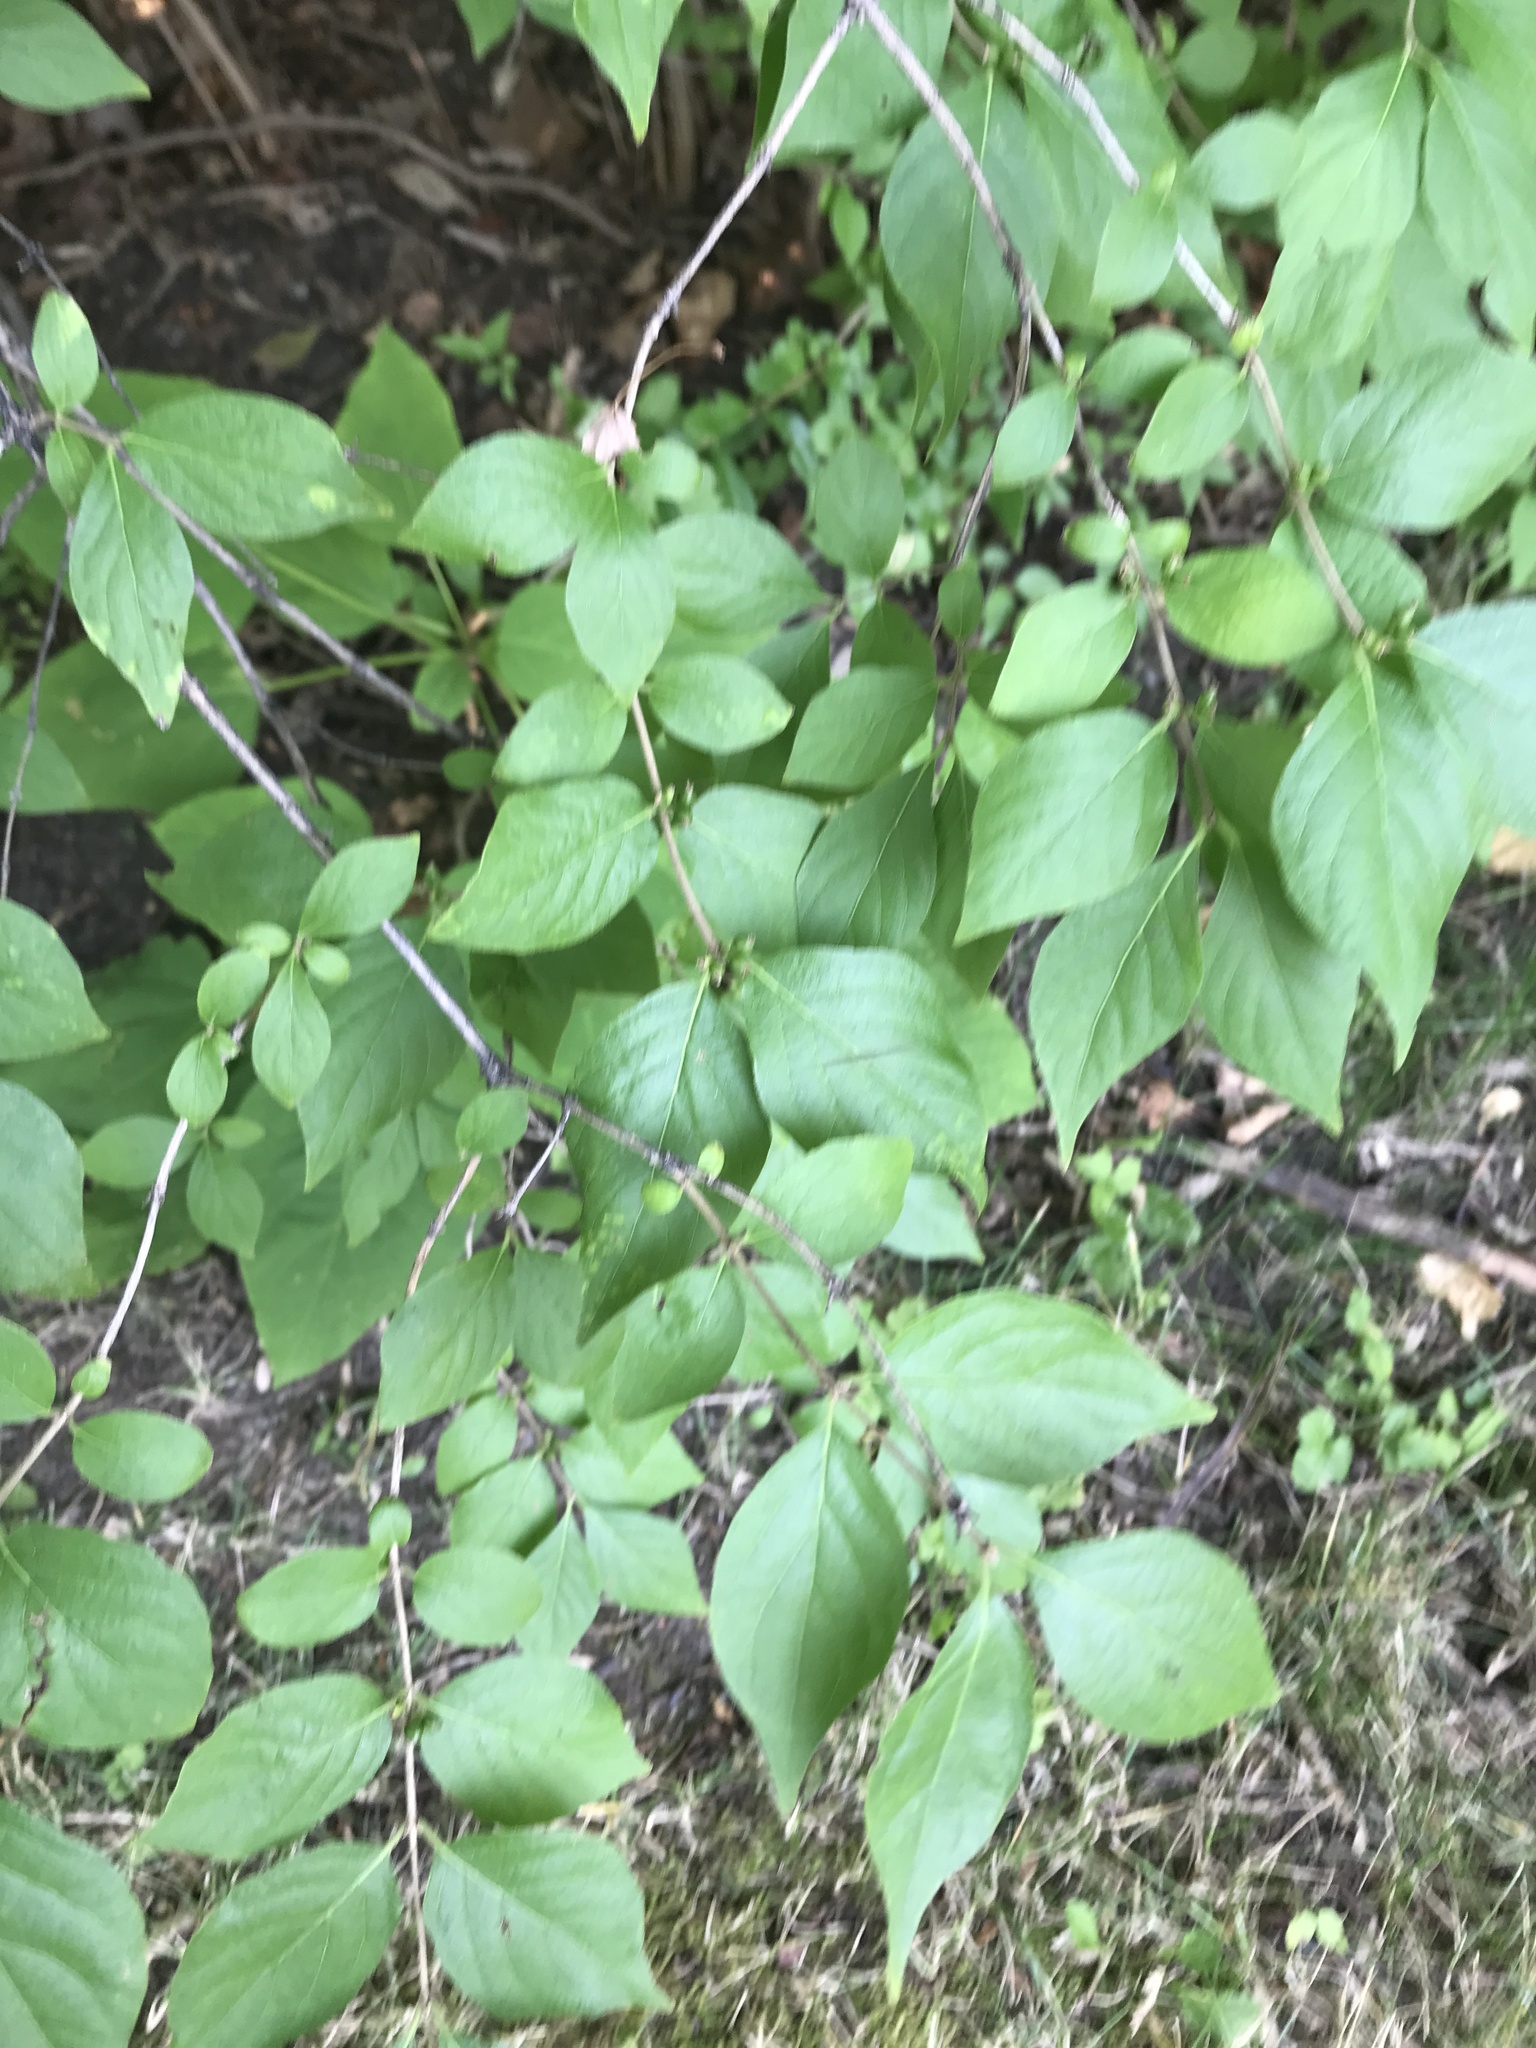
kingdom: Plantae
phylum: Tracheophyta
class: Magnoliopsida
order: Dipsacales
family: Caprifoliaceae
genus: Lonicera
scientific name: Lonicera maackii
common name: Amur honeysuckle
